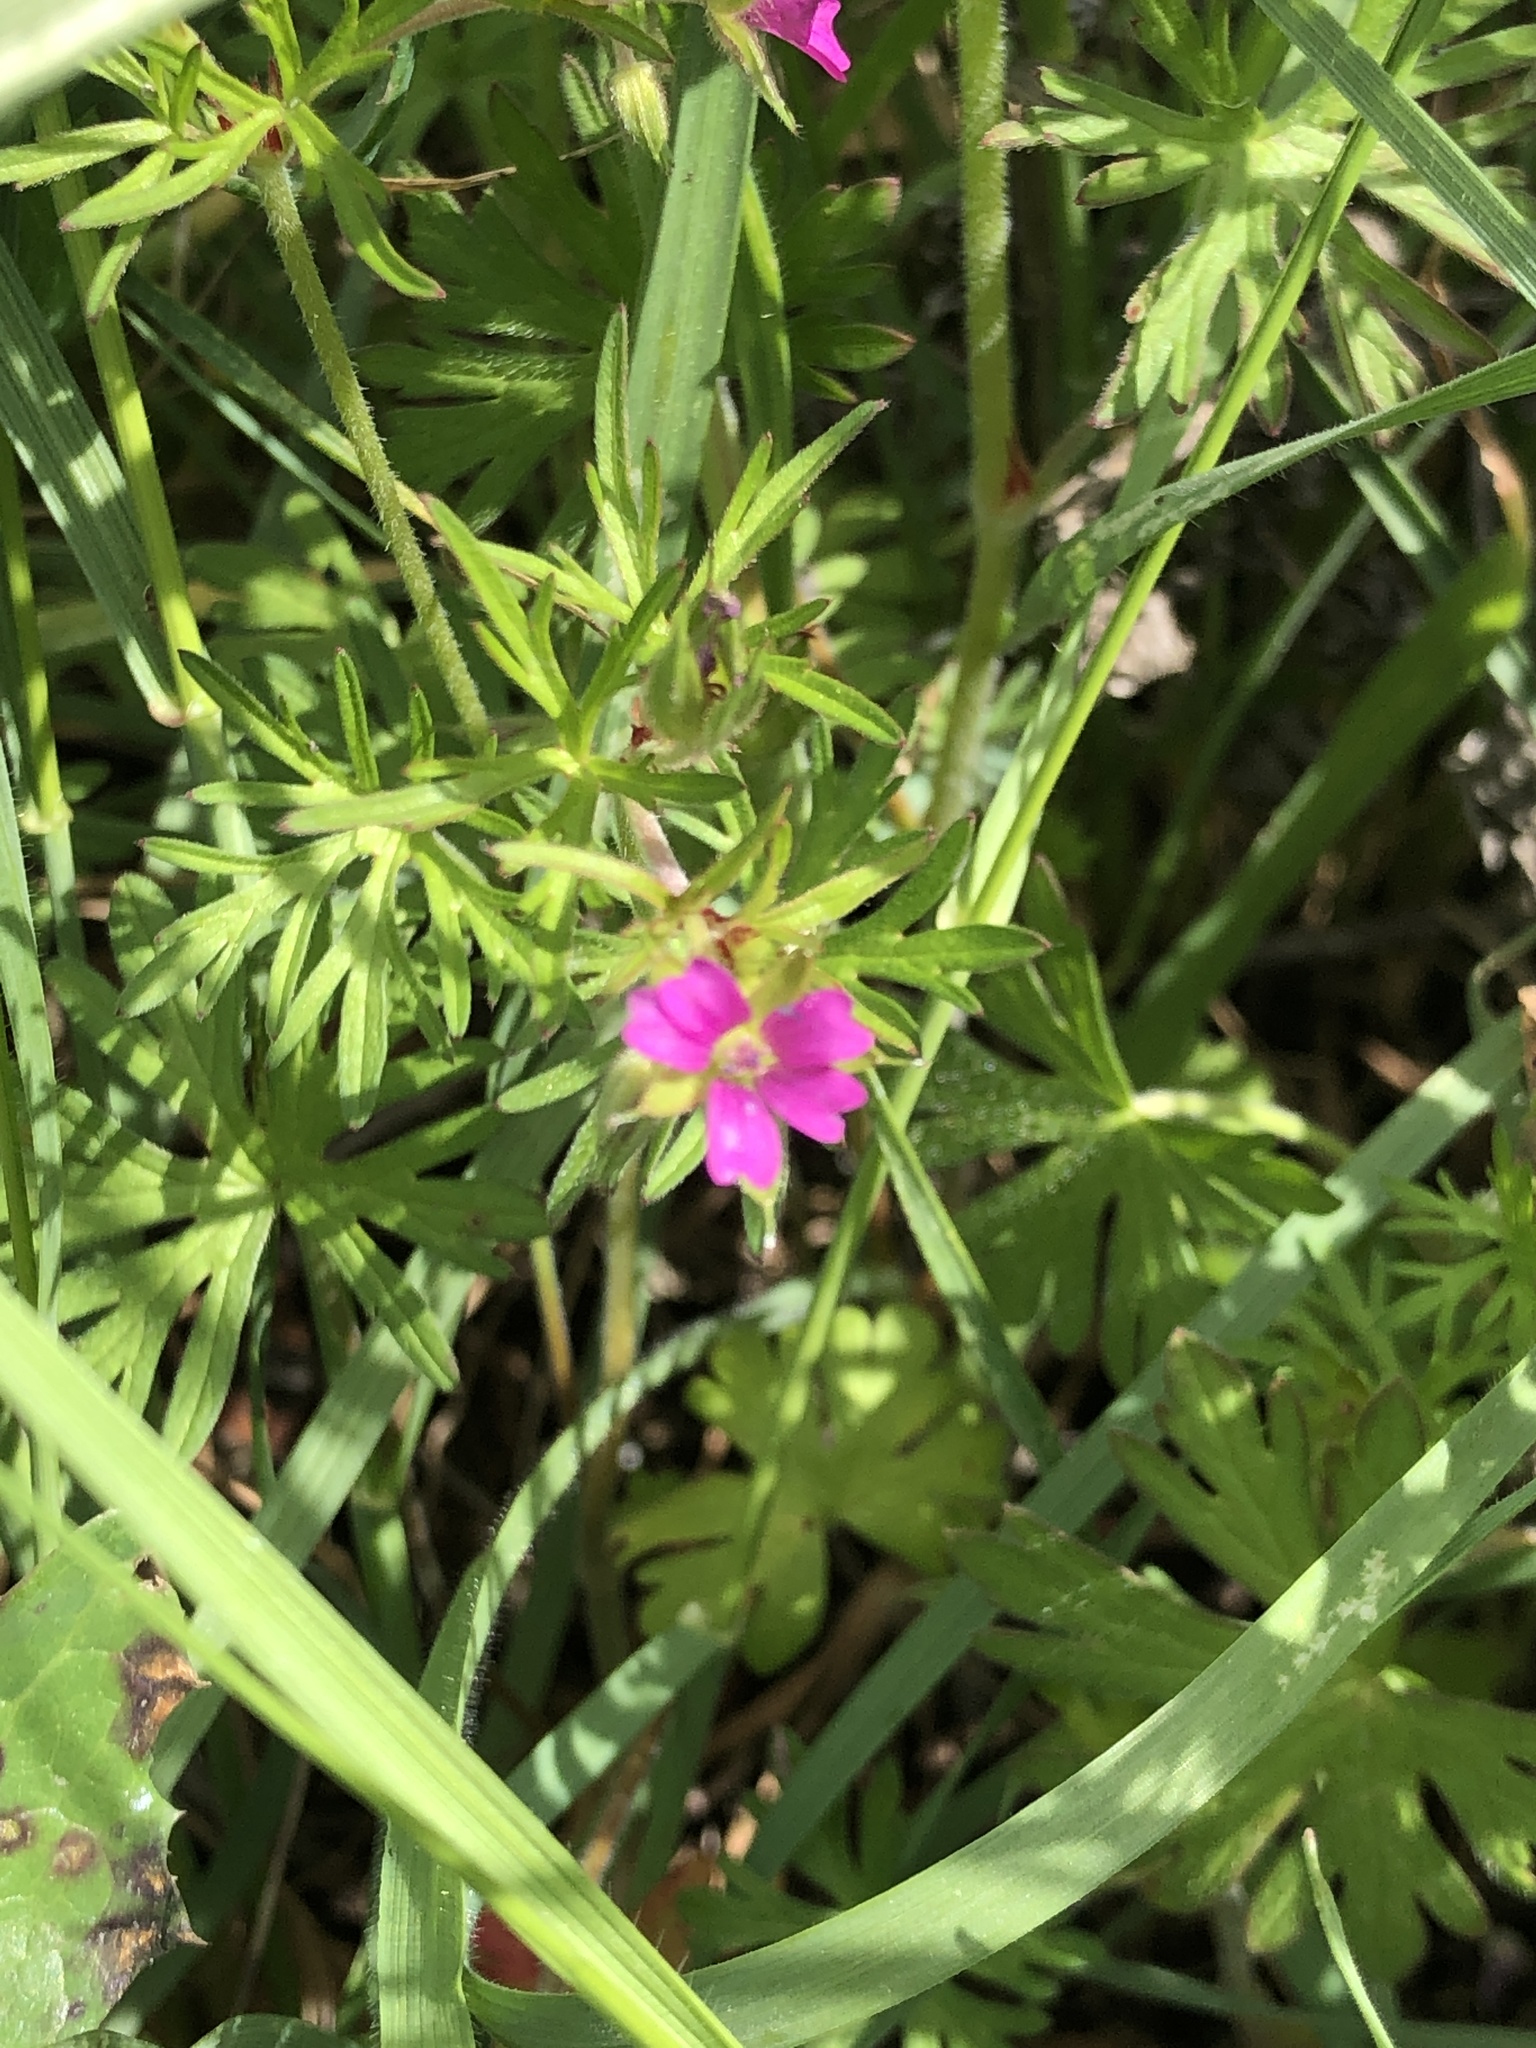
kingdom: Plantae
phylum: Tracheophyta
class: Magnoliopsida
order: Geraniales
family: Geraniaceae
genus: Geranium
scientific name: Geranium dissectum
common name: Cut-leaved crane's-bill
